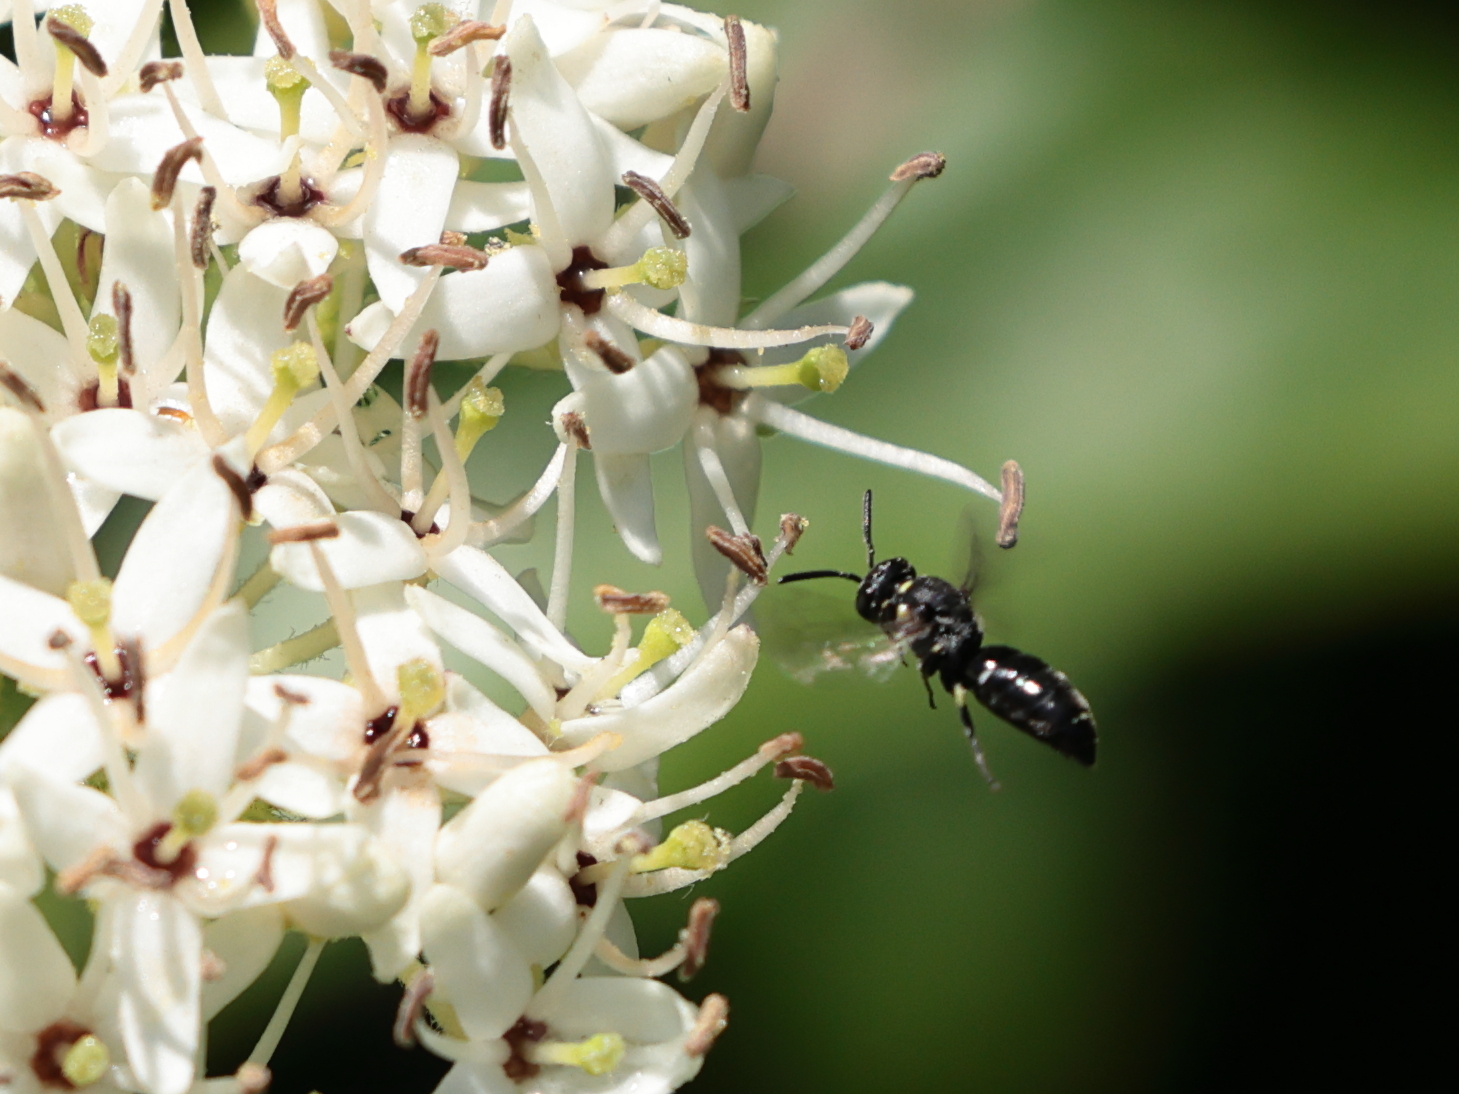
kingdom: Animalia
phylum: Arthropoda
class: Insecta
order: Hymenoptera
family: Colletidae
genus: Hylaeus
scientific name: Hylaeus modestus
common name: Yellow-faced bee
